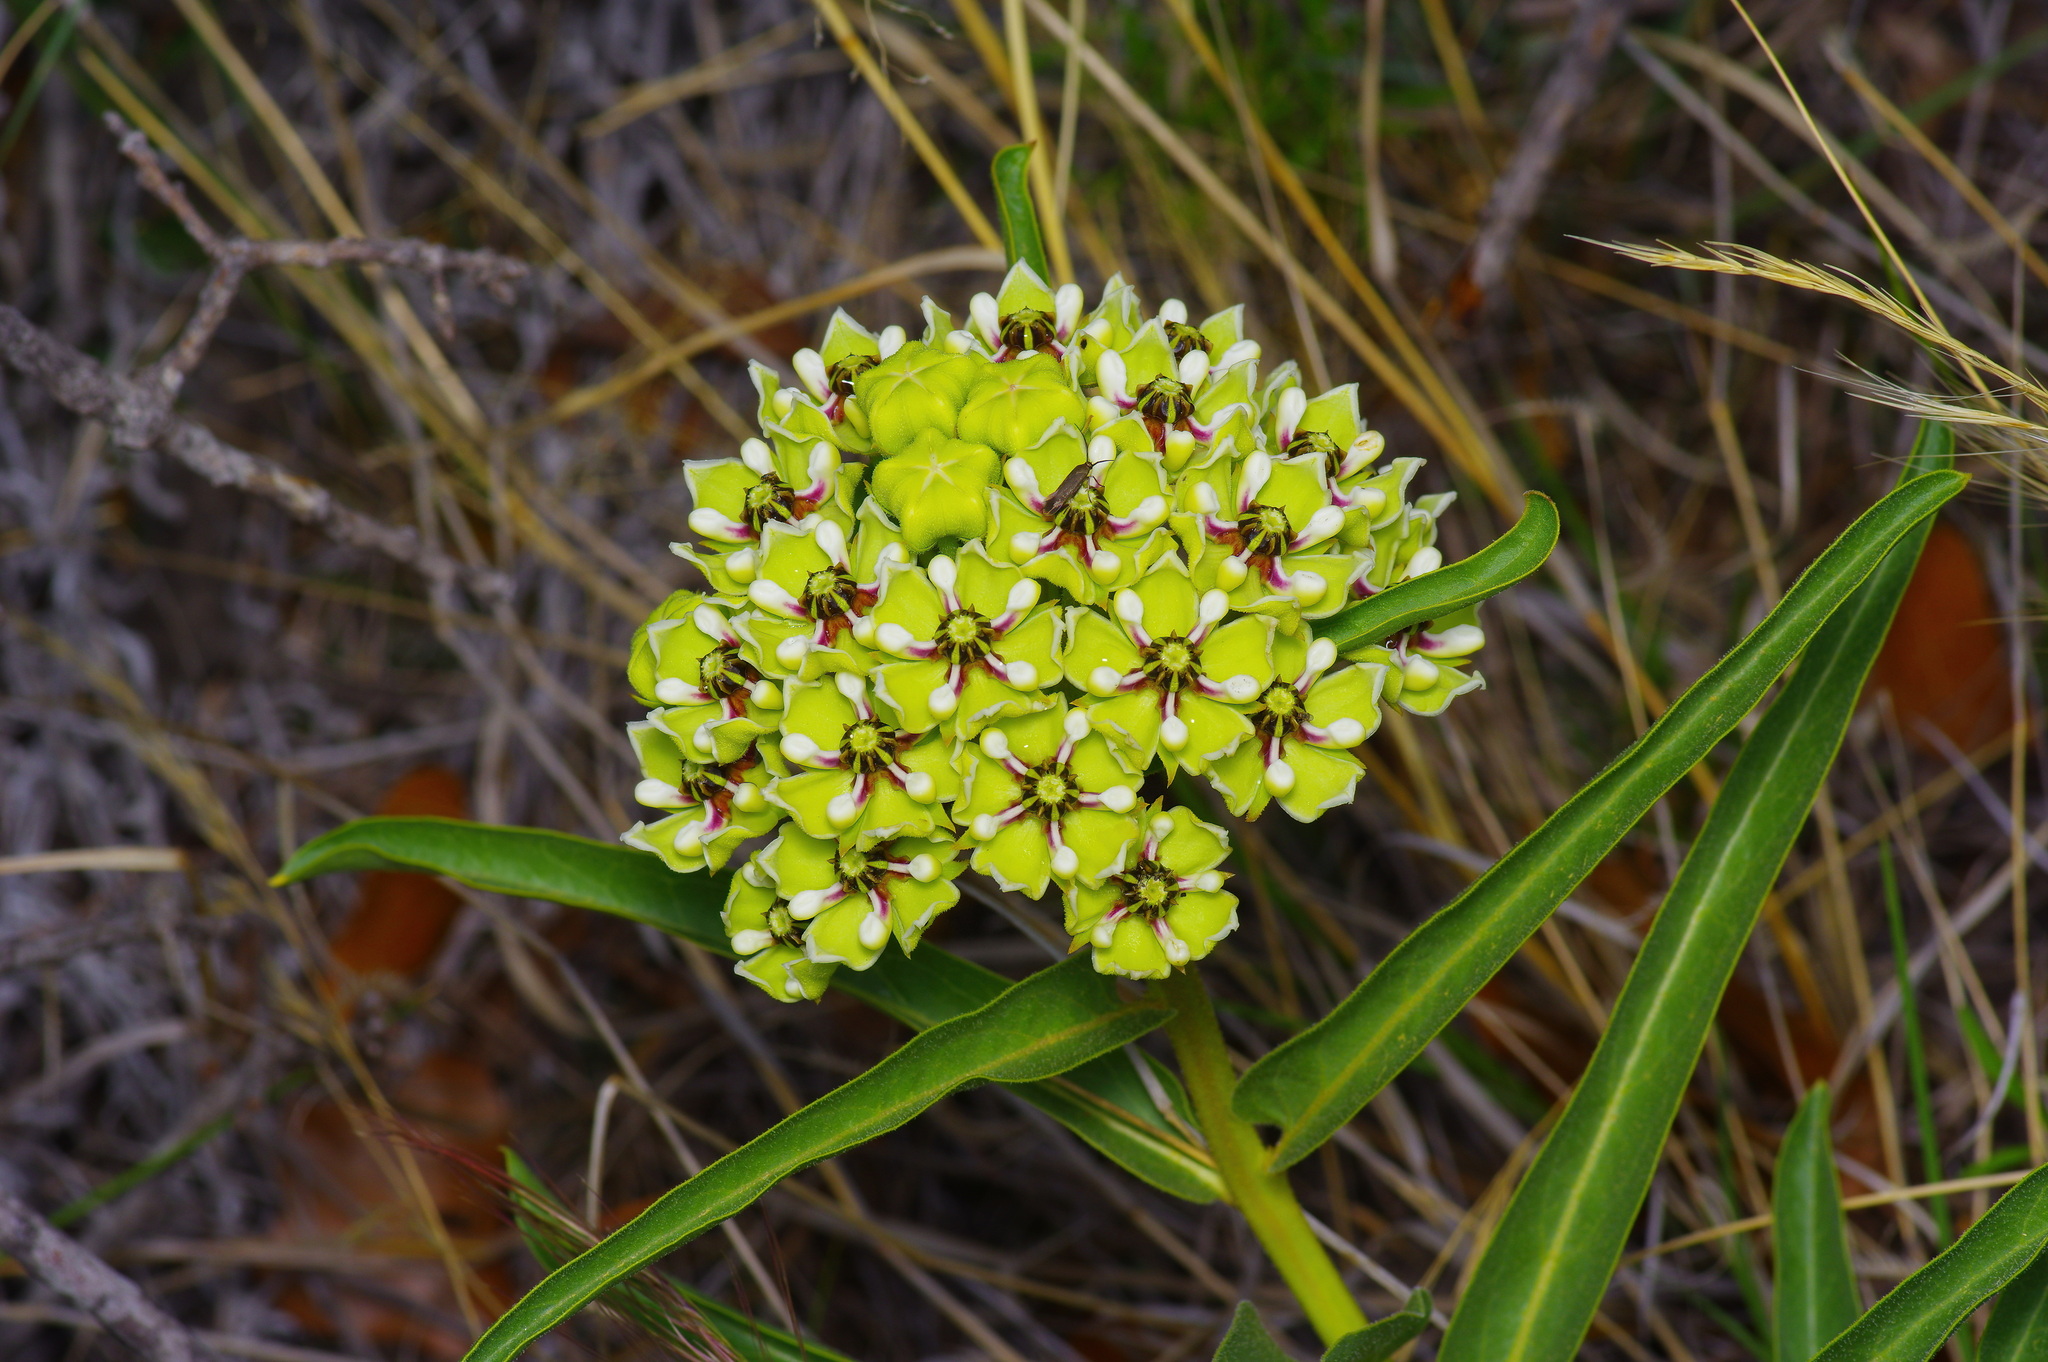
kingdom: Plantae
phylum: Tracheophyta
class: Magnoliopsida
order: Gentianales
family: Apocynaceae
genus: Asclepias
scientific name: Asclepias asperula
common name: Antelope horns
